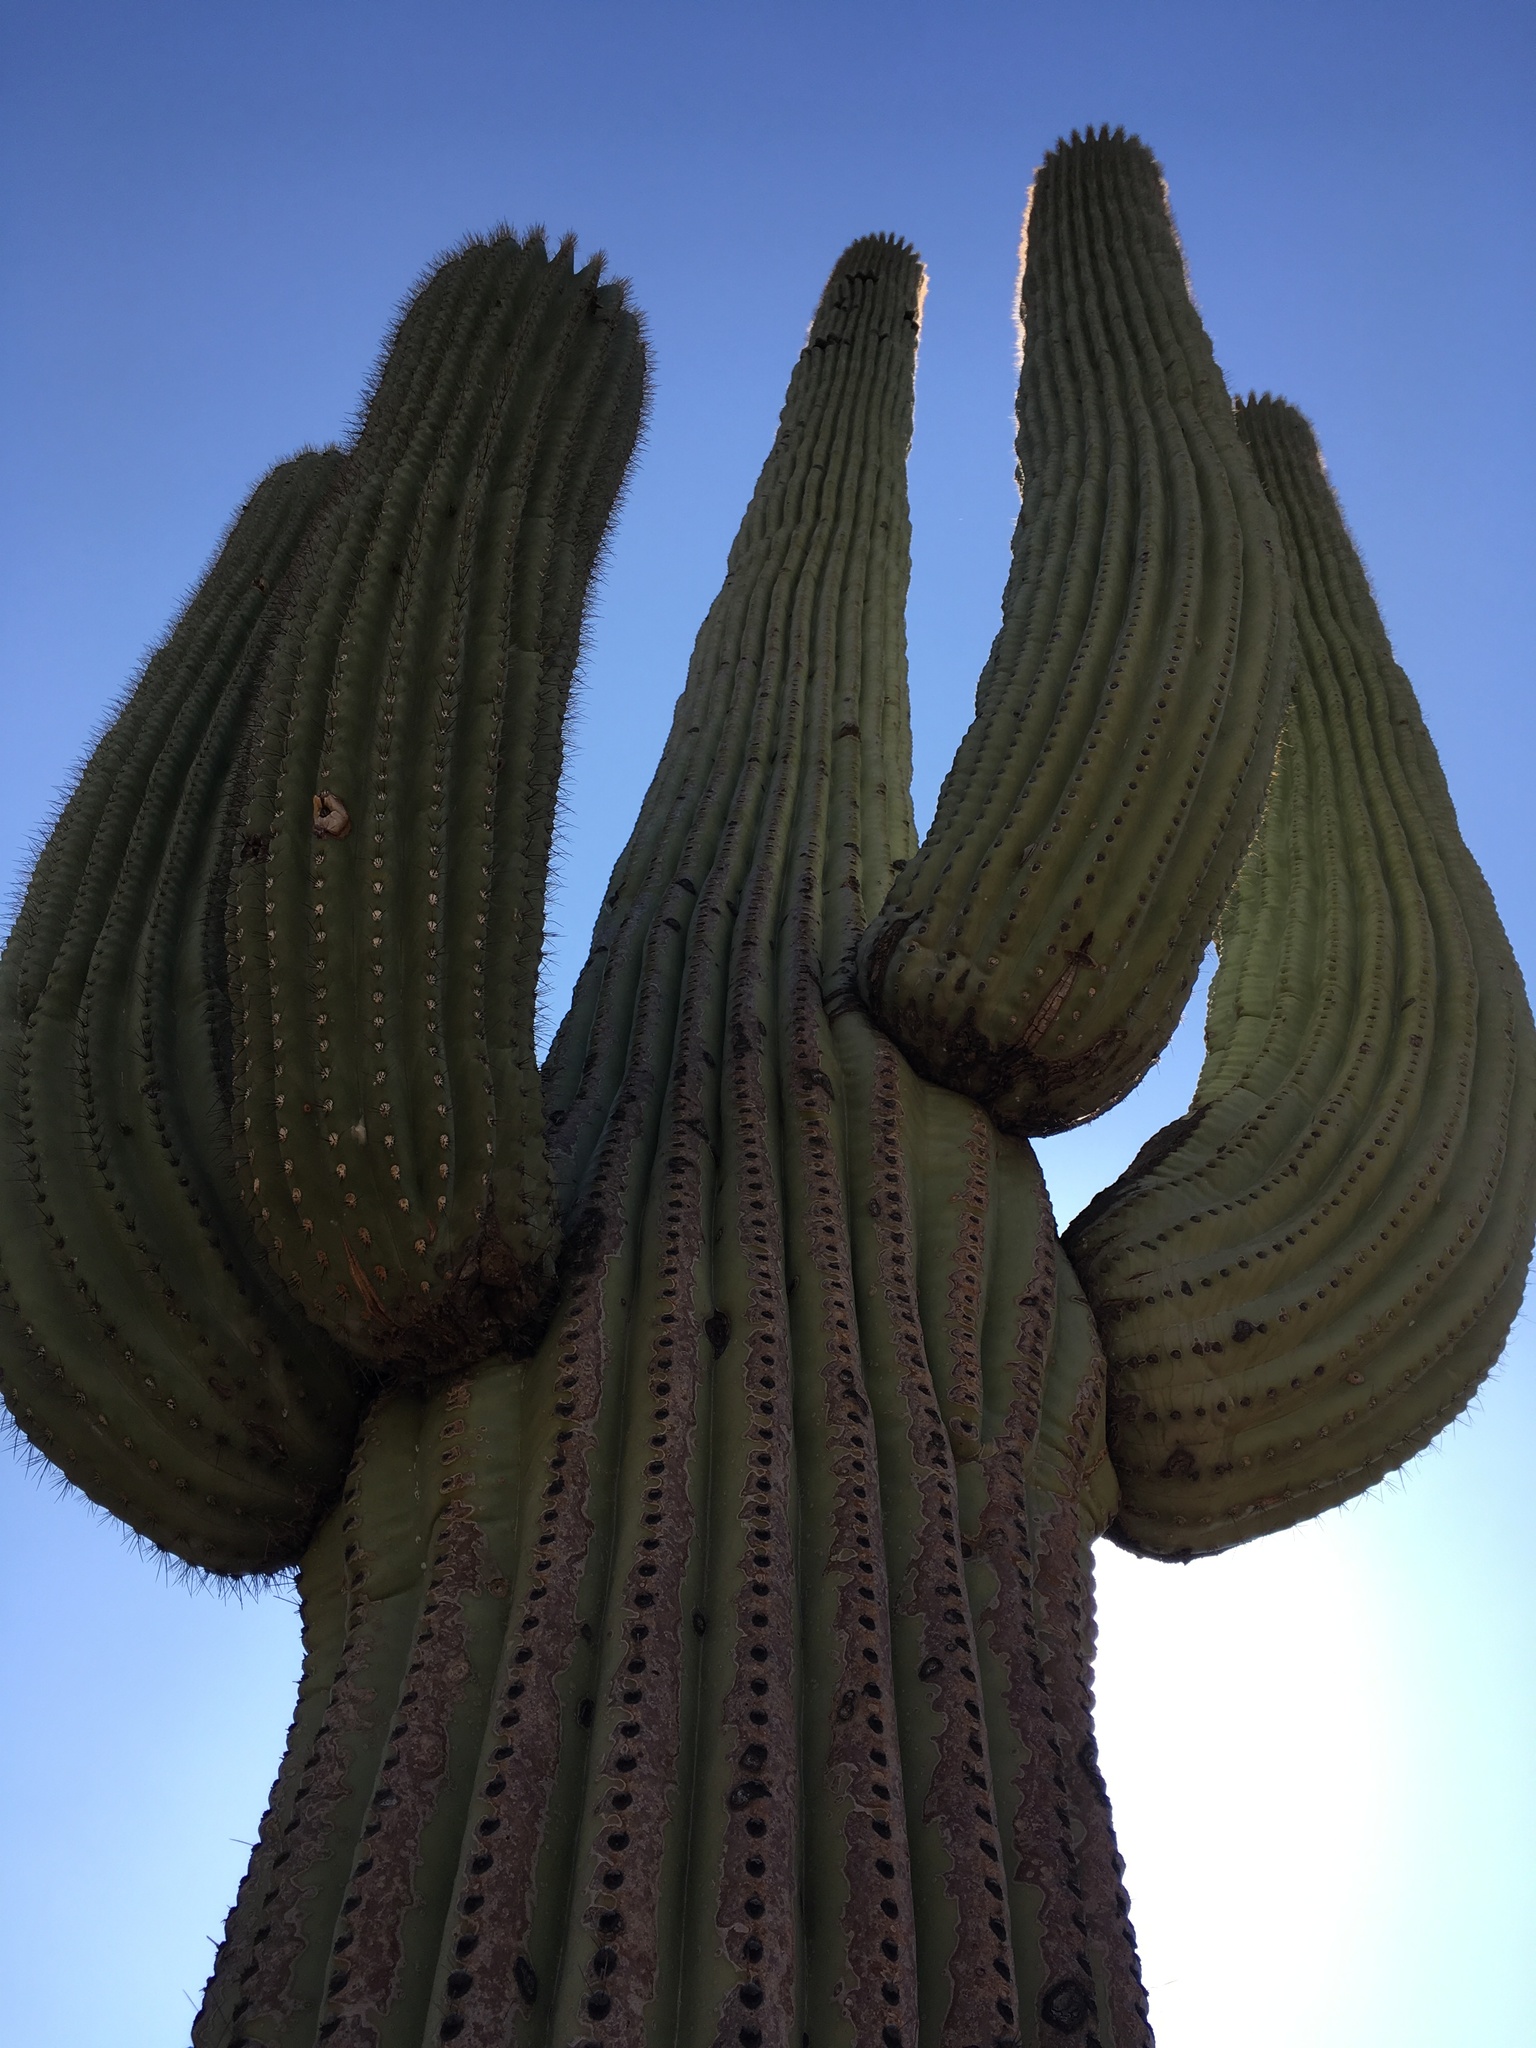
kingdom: Plantae
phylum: Tracheophyta
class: Magnoliopsida
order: Caryophyllales
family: Cactaceae
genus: Carnegiea
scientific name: Carnegiea gigantea
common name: Saguaro
